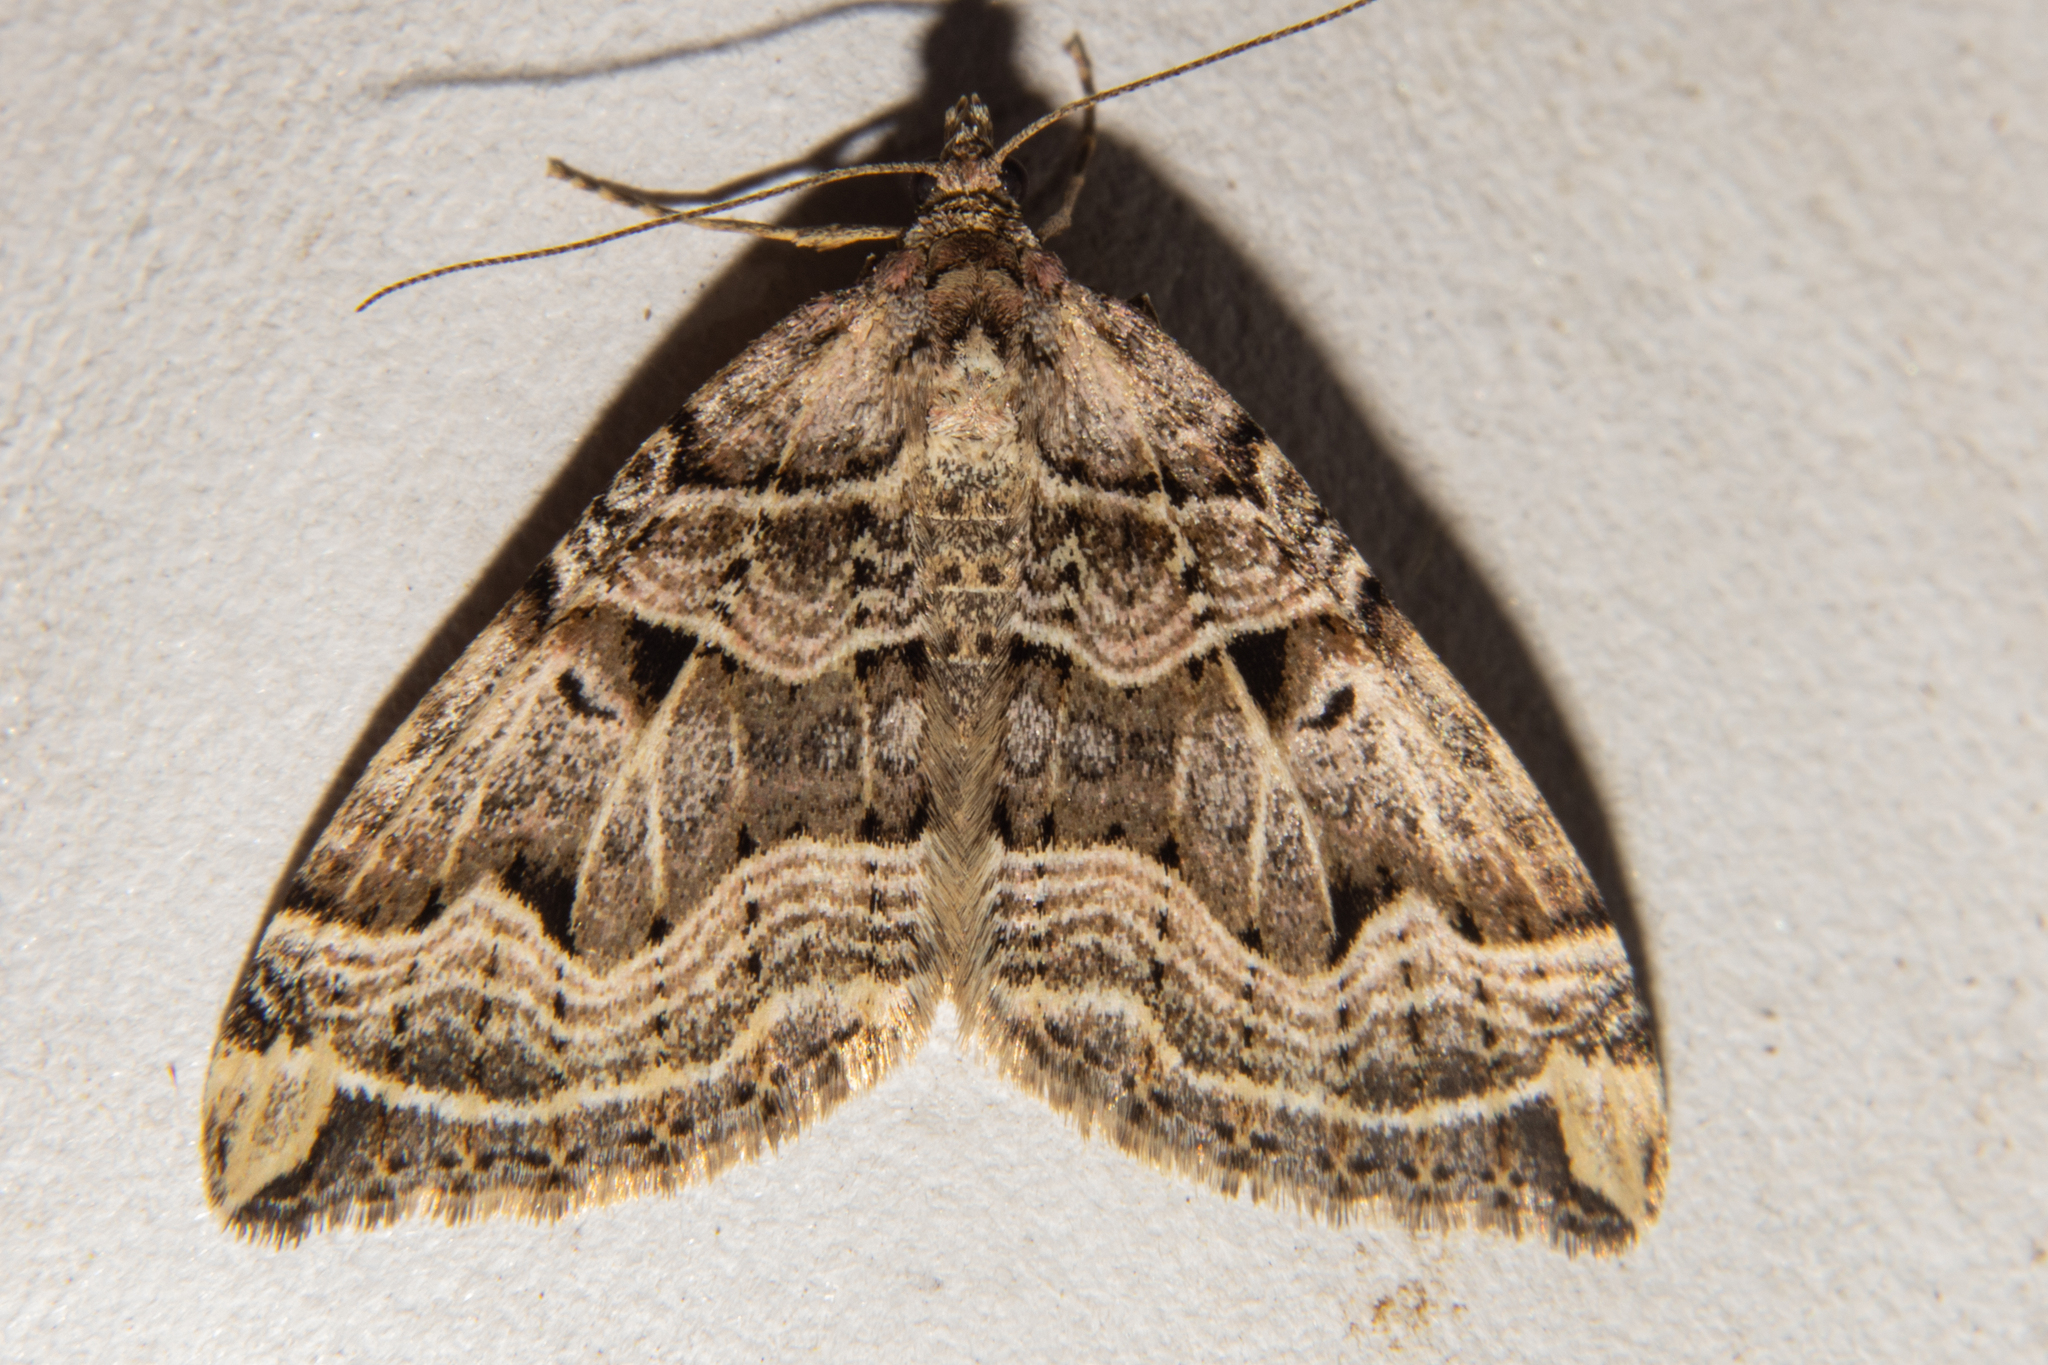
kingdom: Animalia
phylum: Arthropoda
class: Insecta
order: Lepidoptera
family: Geometridae
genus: Xanthorhoe
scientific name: Xanthorhoe semifissata
